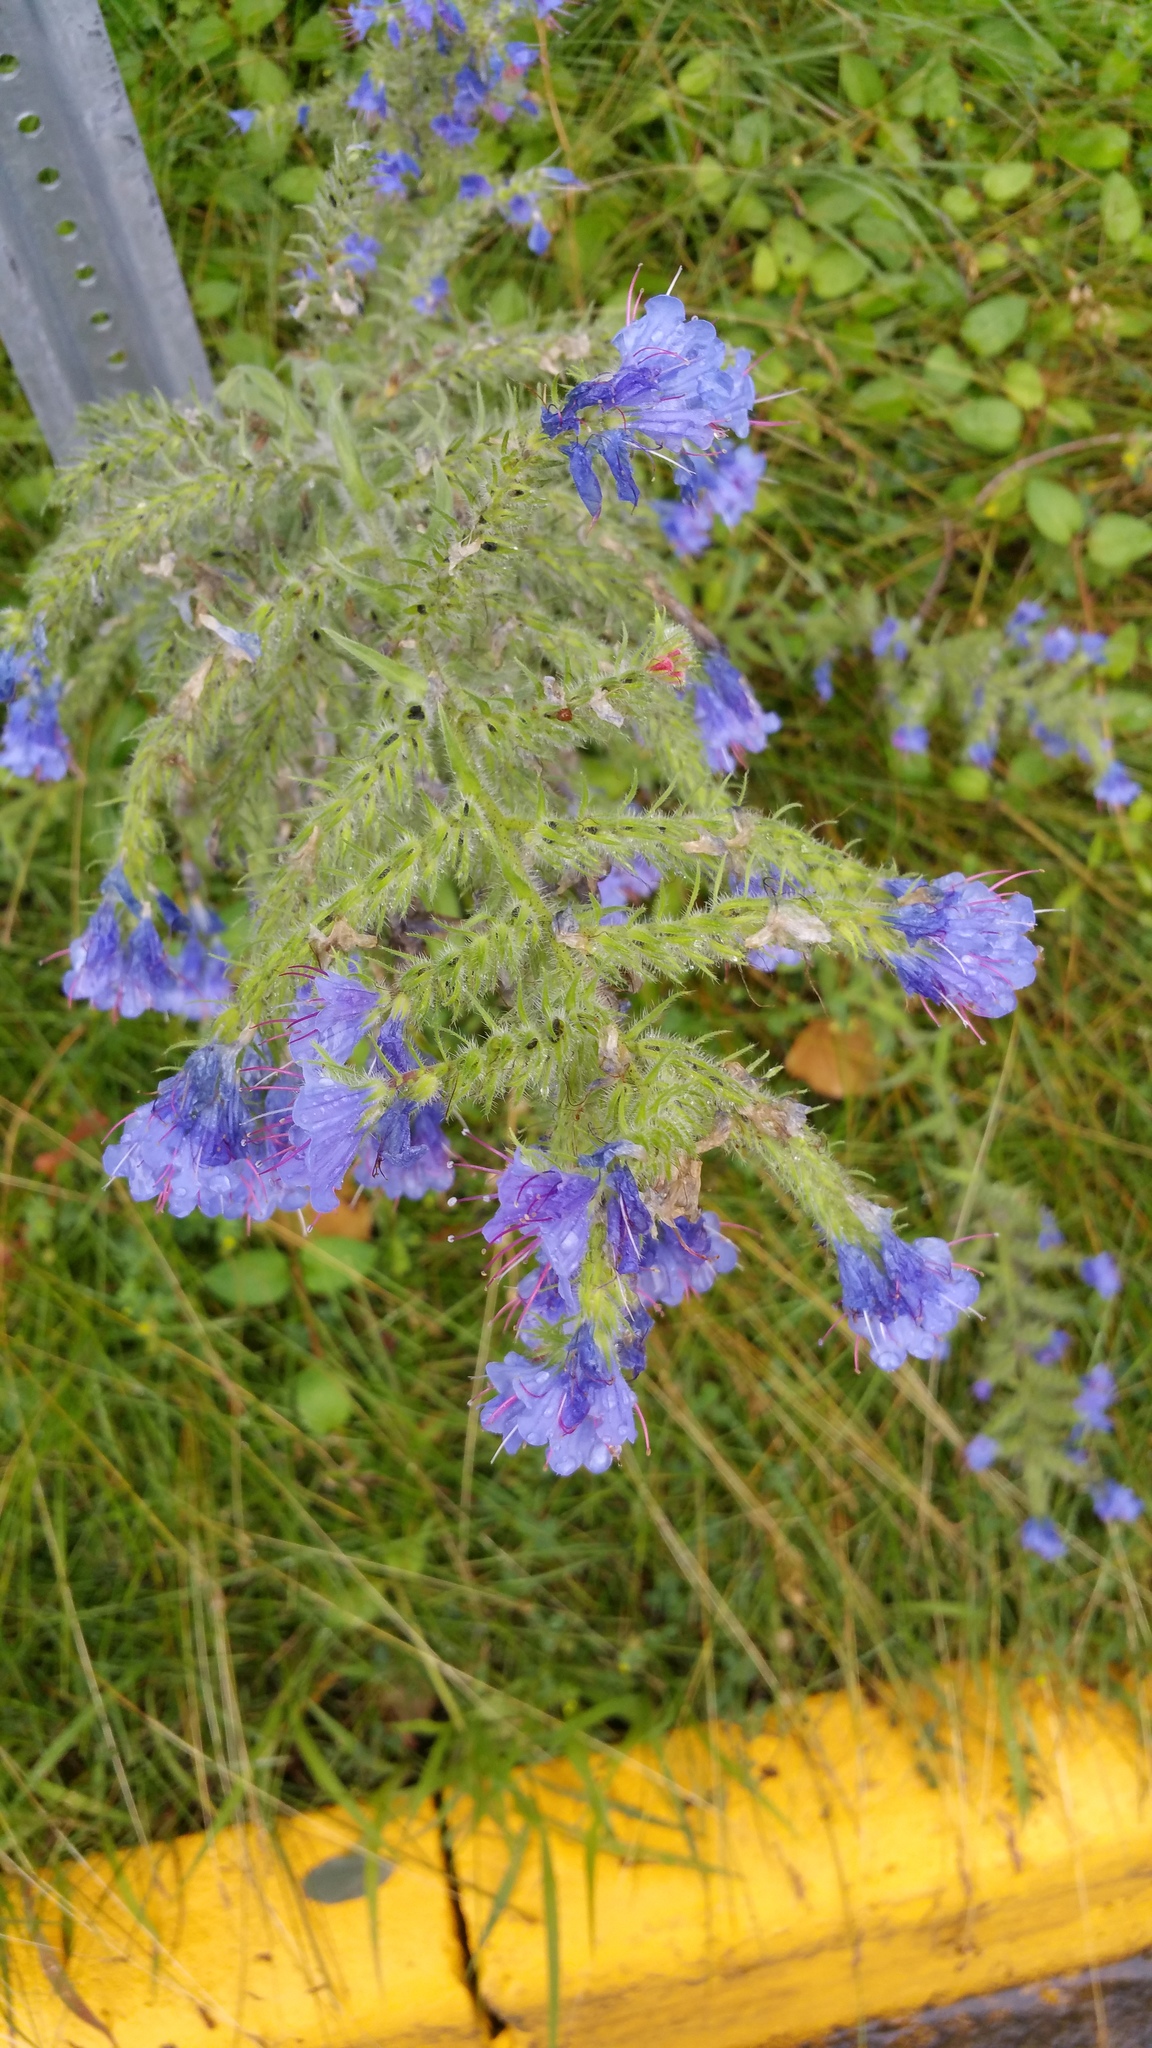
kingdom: Plantae
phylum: Tracheophyta
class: Magnoliopsida
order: Boraginales
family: Boraginaceae
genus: Echium
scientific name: Echium vulgare
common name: Common viper's bugloss
